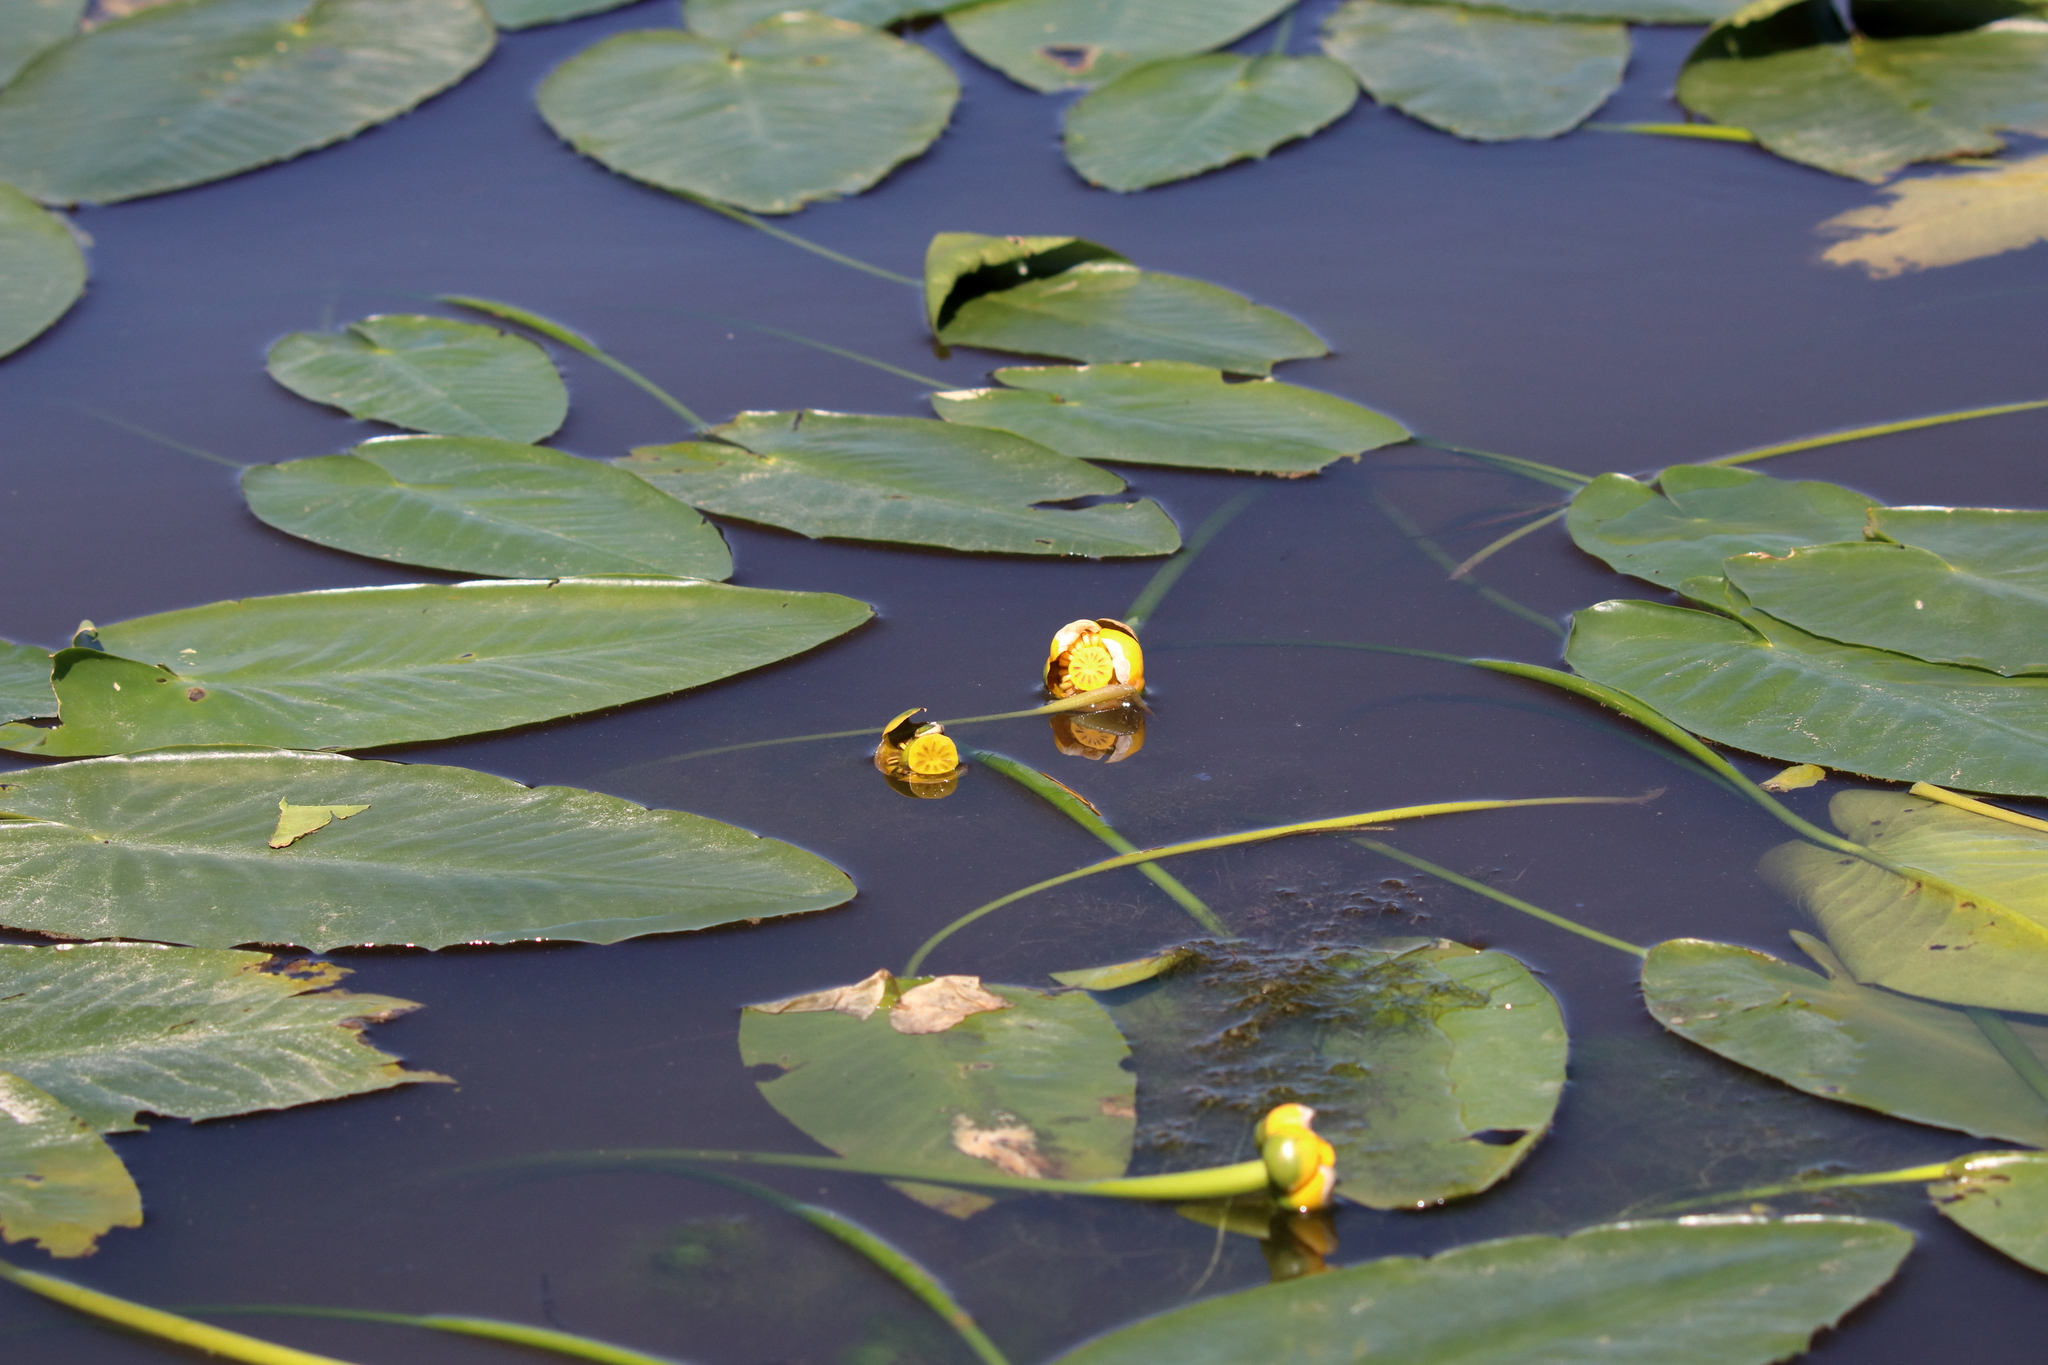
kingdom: Plantae
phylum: Tracheophyta
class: Magnoliopsida
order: Nymphaeales
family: Nymphaeaceae
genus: Nuphar
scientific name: Nuphar advena
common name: Spatter-dock
